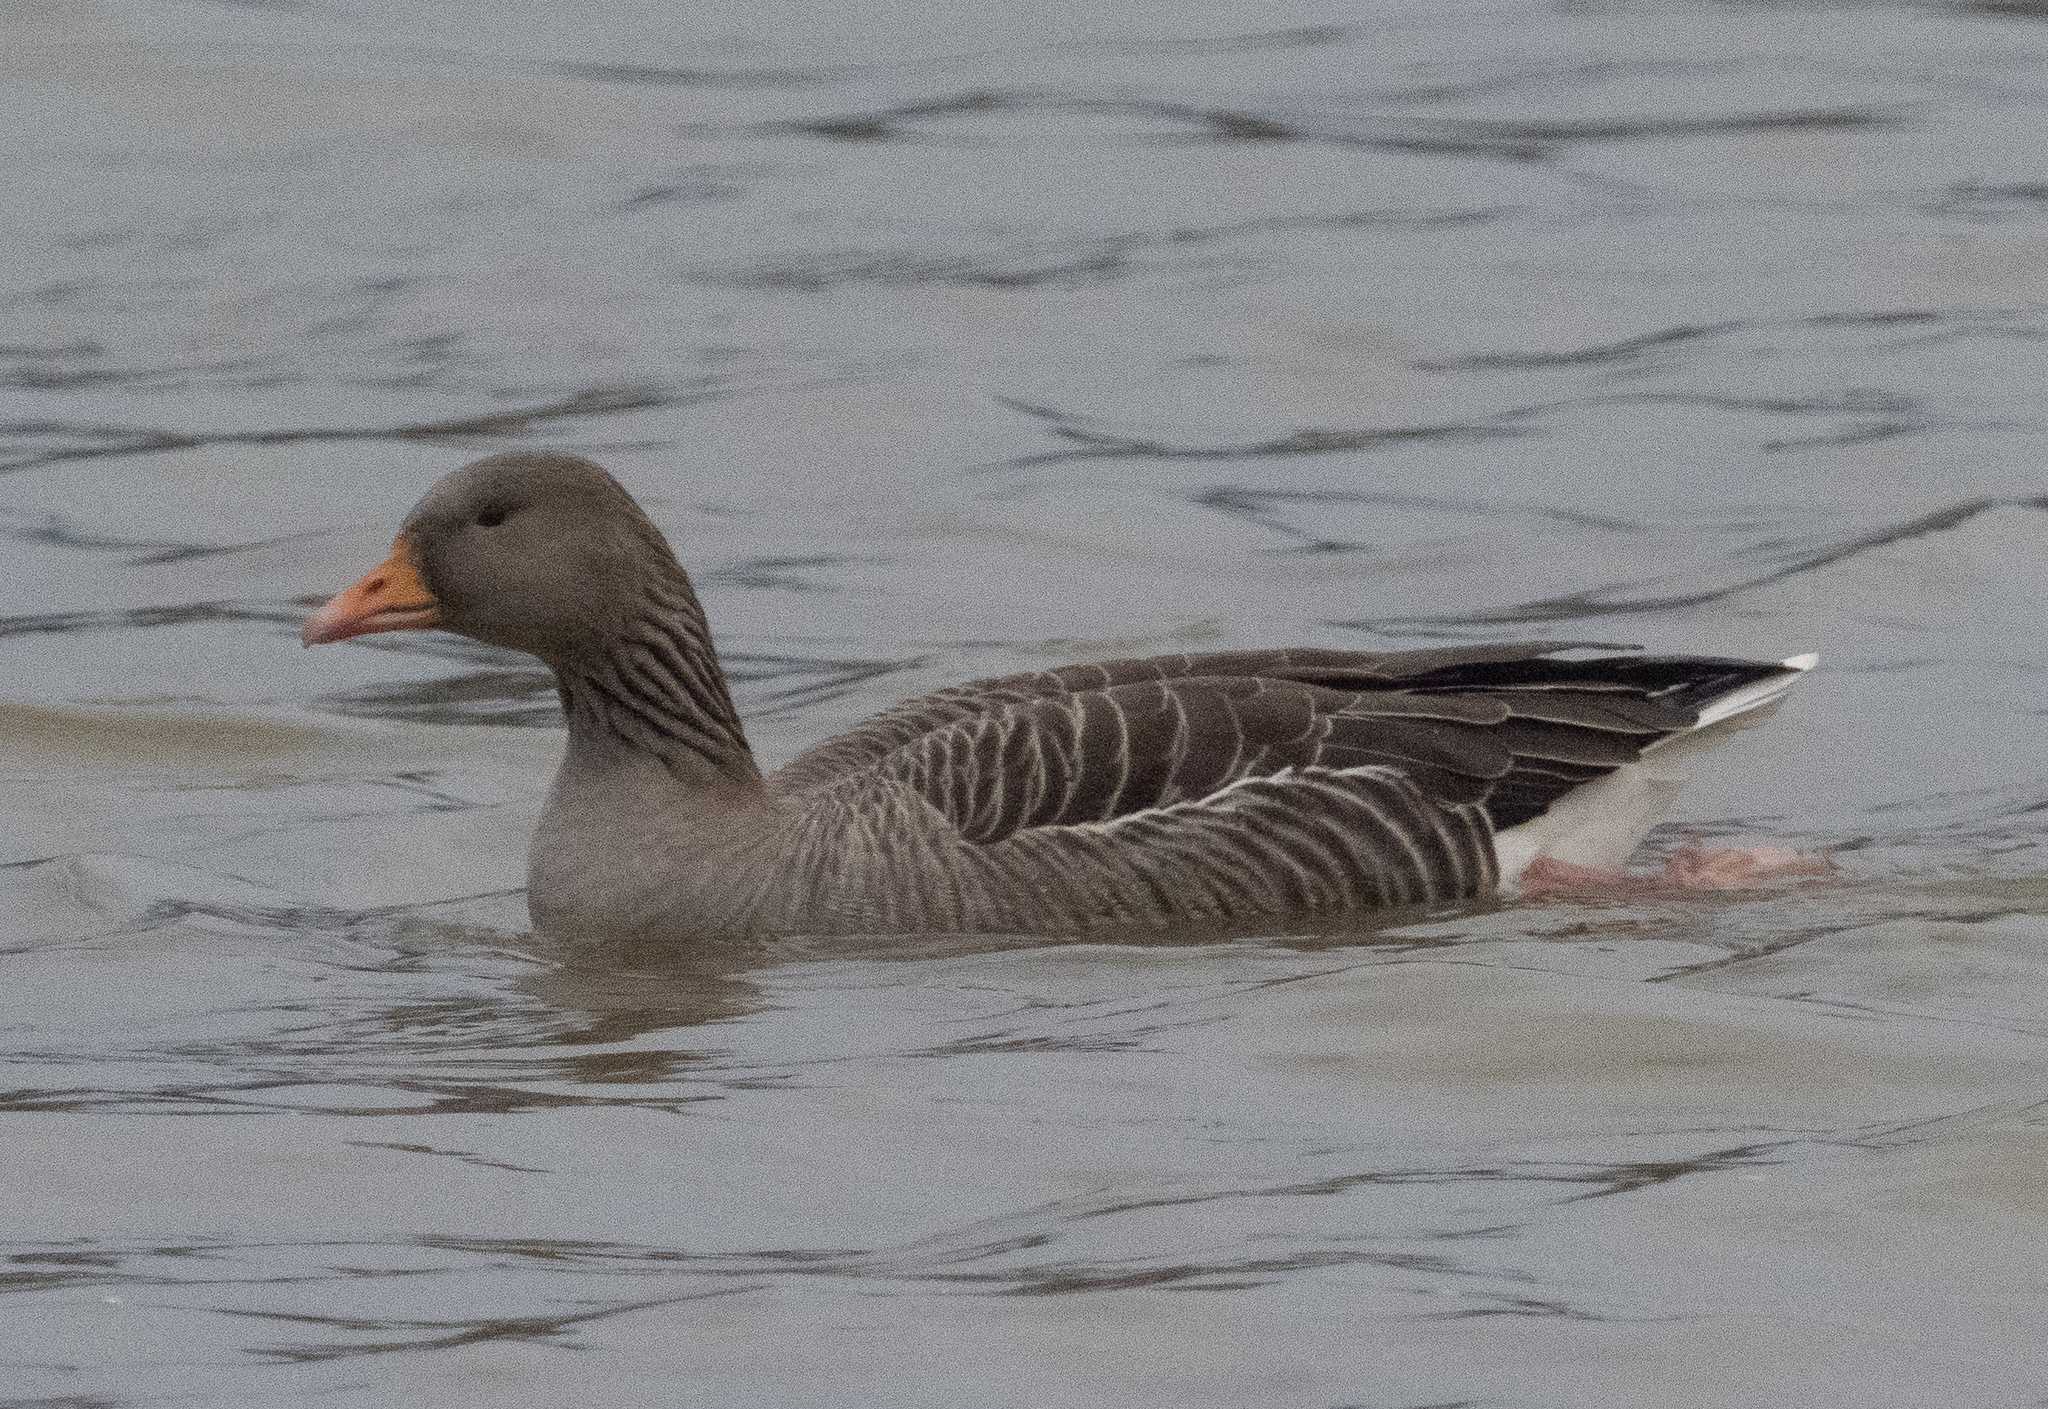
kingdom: Animalia
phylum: Chordata
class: Aves
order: Anseriformes
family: Anatidae
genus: Anser
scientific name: Anser anser
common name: Greylag goose
